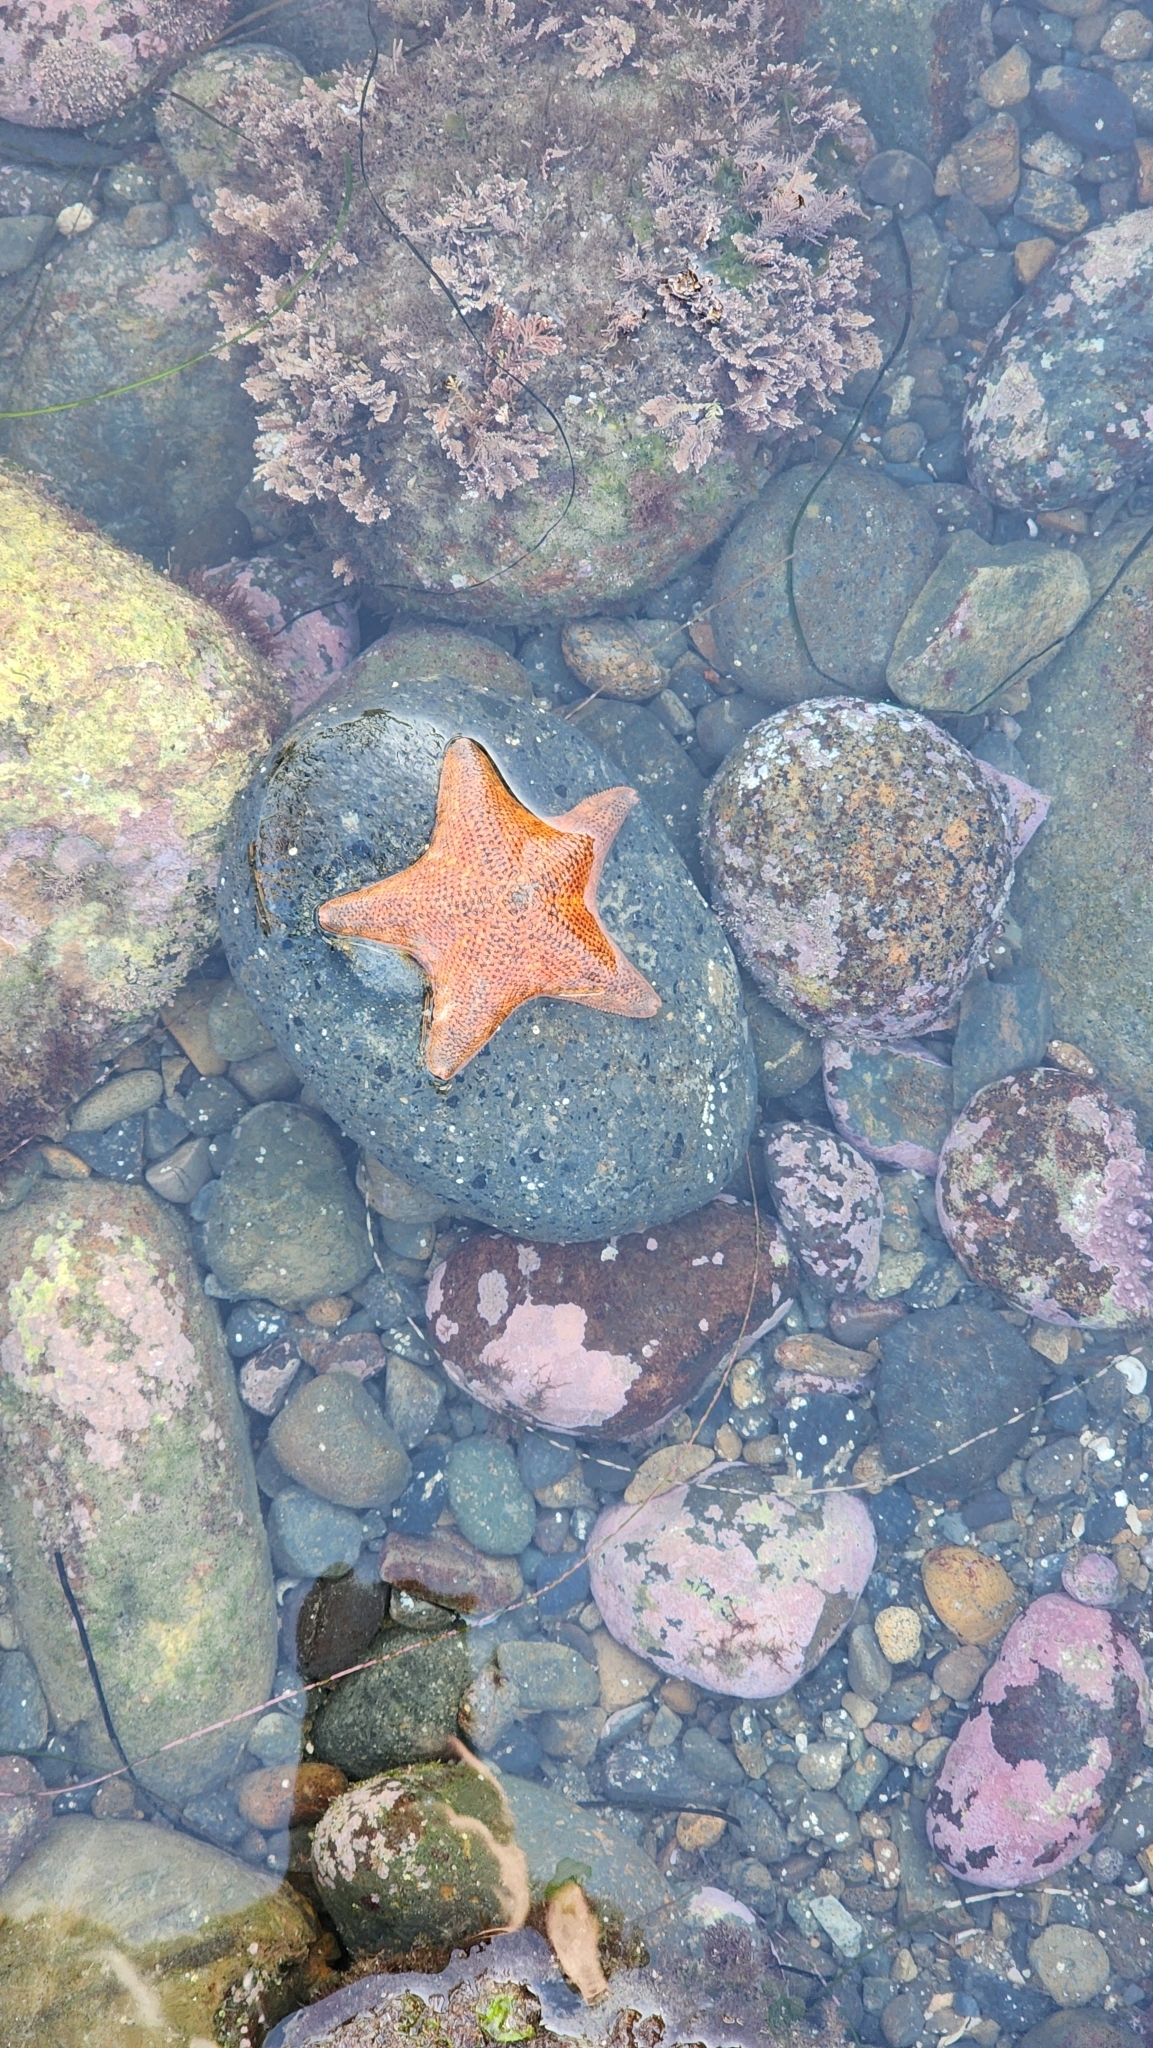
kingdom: Animalia
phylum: Echinodermata
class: Asteroidea
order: Valvatida
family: Asterinidae
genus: Patiria
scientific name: Patiria miniata
